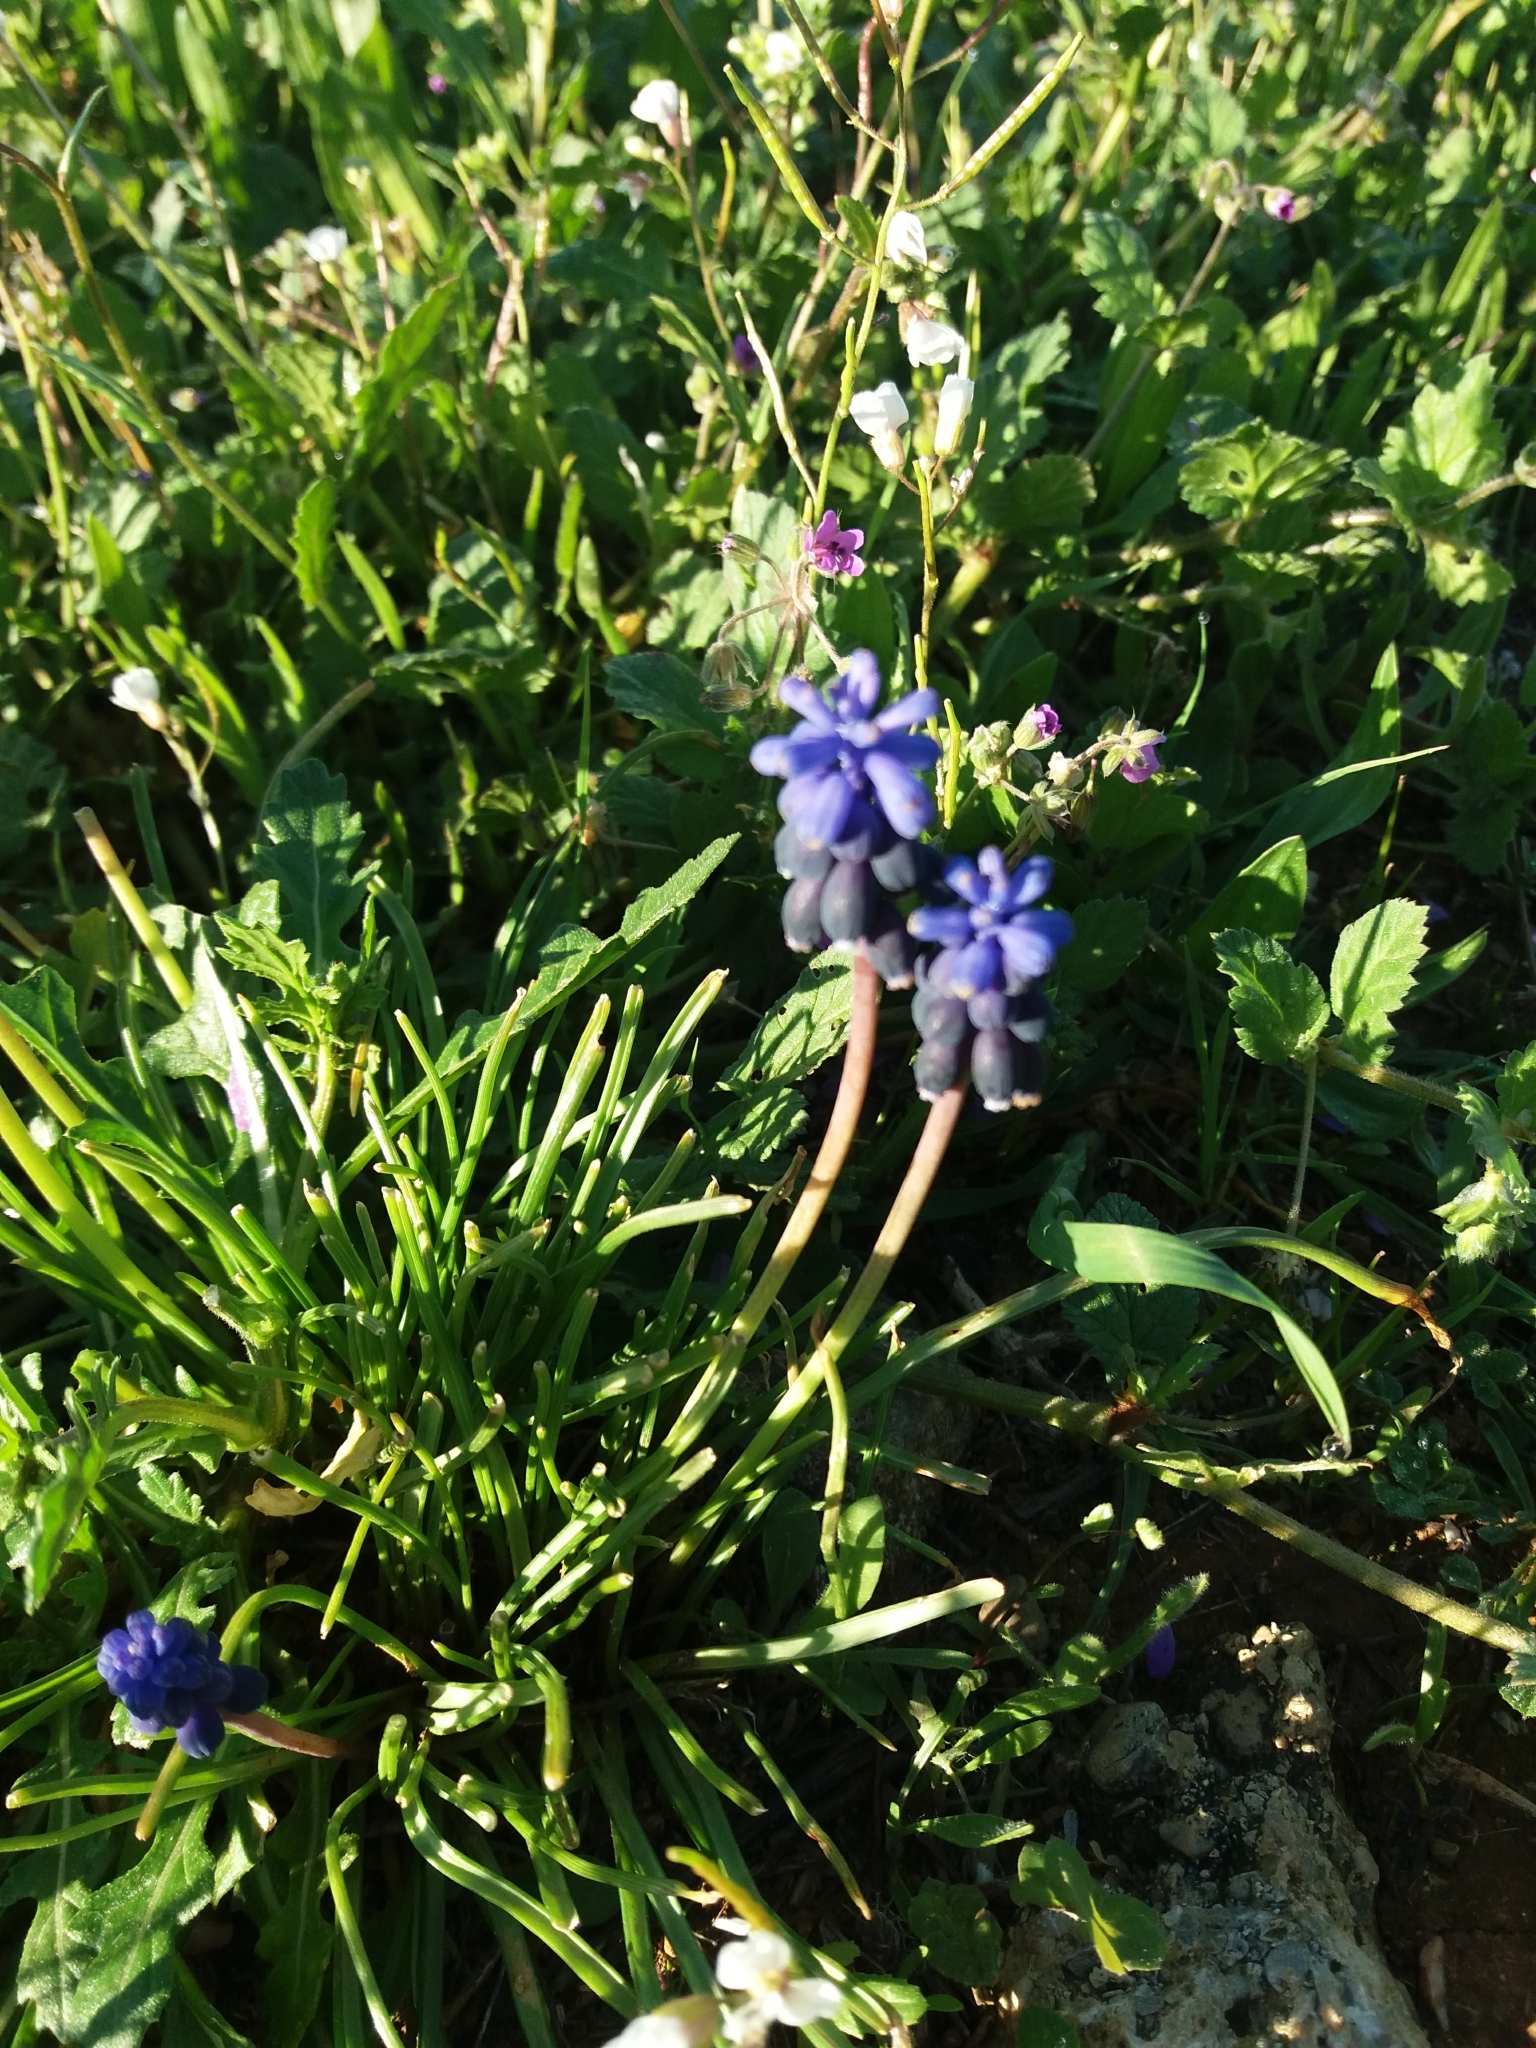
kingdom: Plantae
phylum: Tracheophyta
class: Liliopsida
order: Asparagales
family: Asparagaceae
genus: Muscari
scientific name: Muscari neglectum
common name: Grape-hyacinth
